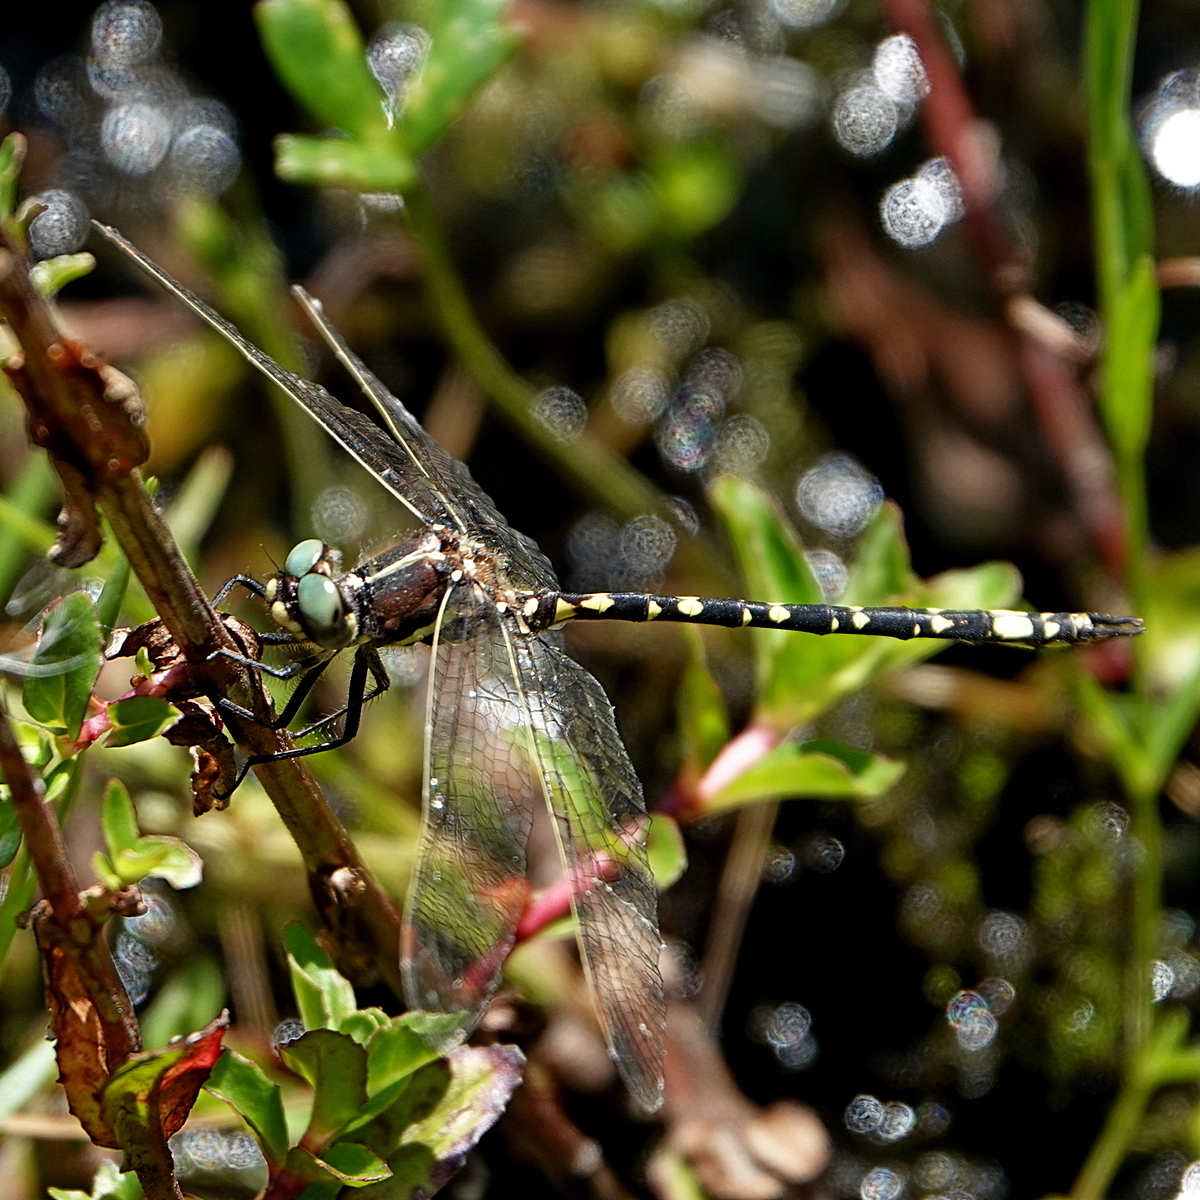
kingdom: Animalia
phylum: Arthropoda
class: Insecta
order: Odonata
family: Synthemistidae
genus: Synthemis
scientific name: Synthemis eustalacta
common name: Swamp tigertail
